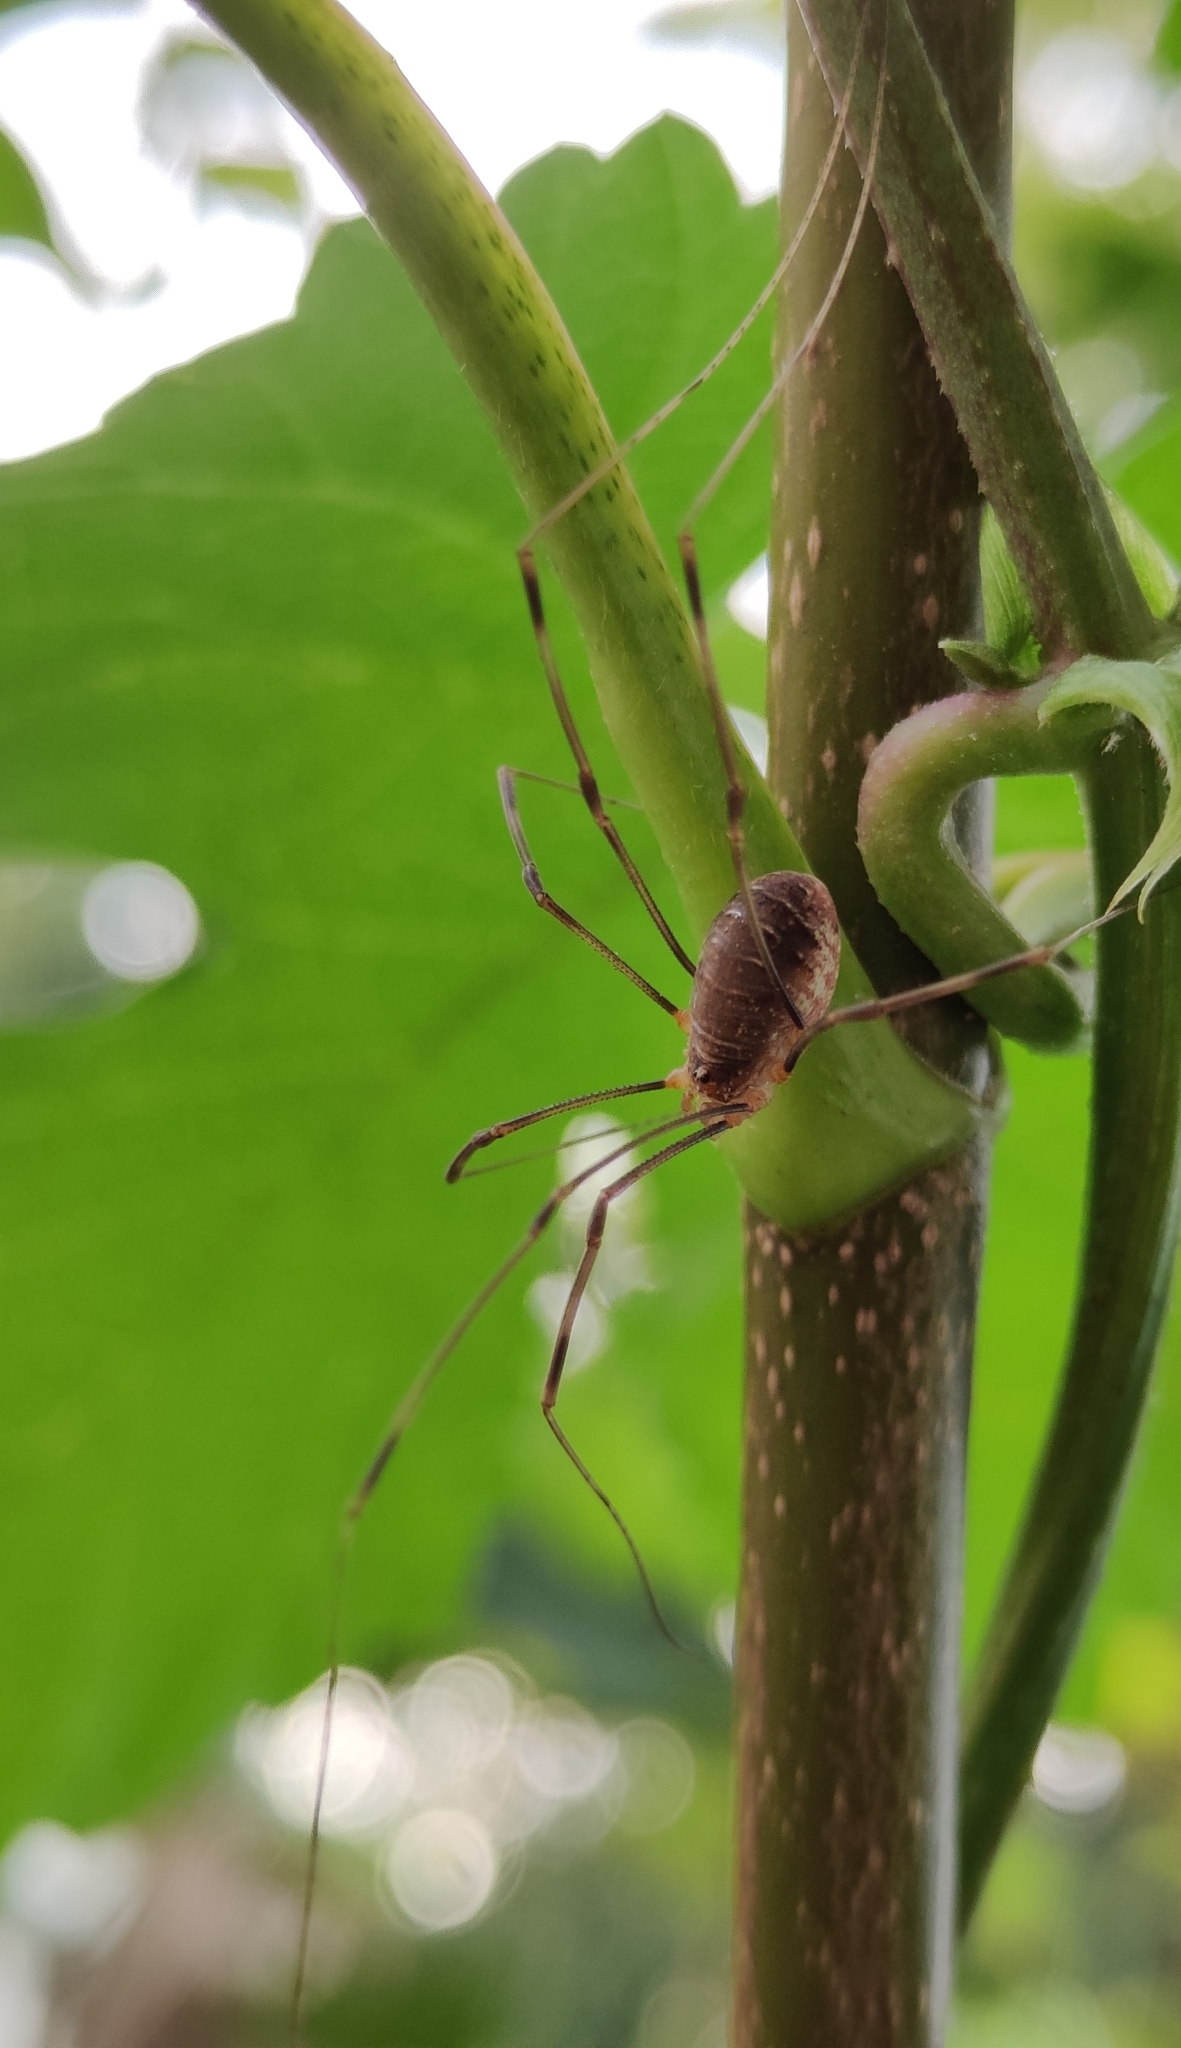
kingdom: Animalia
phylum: Arthropoda
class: Arachnida
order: Opiliones
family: Phalangiidae
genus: Opilio
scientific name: Opilio canestrinii
